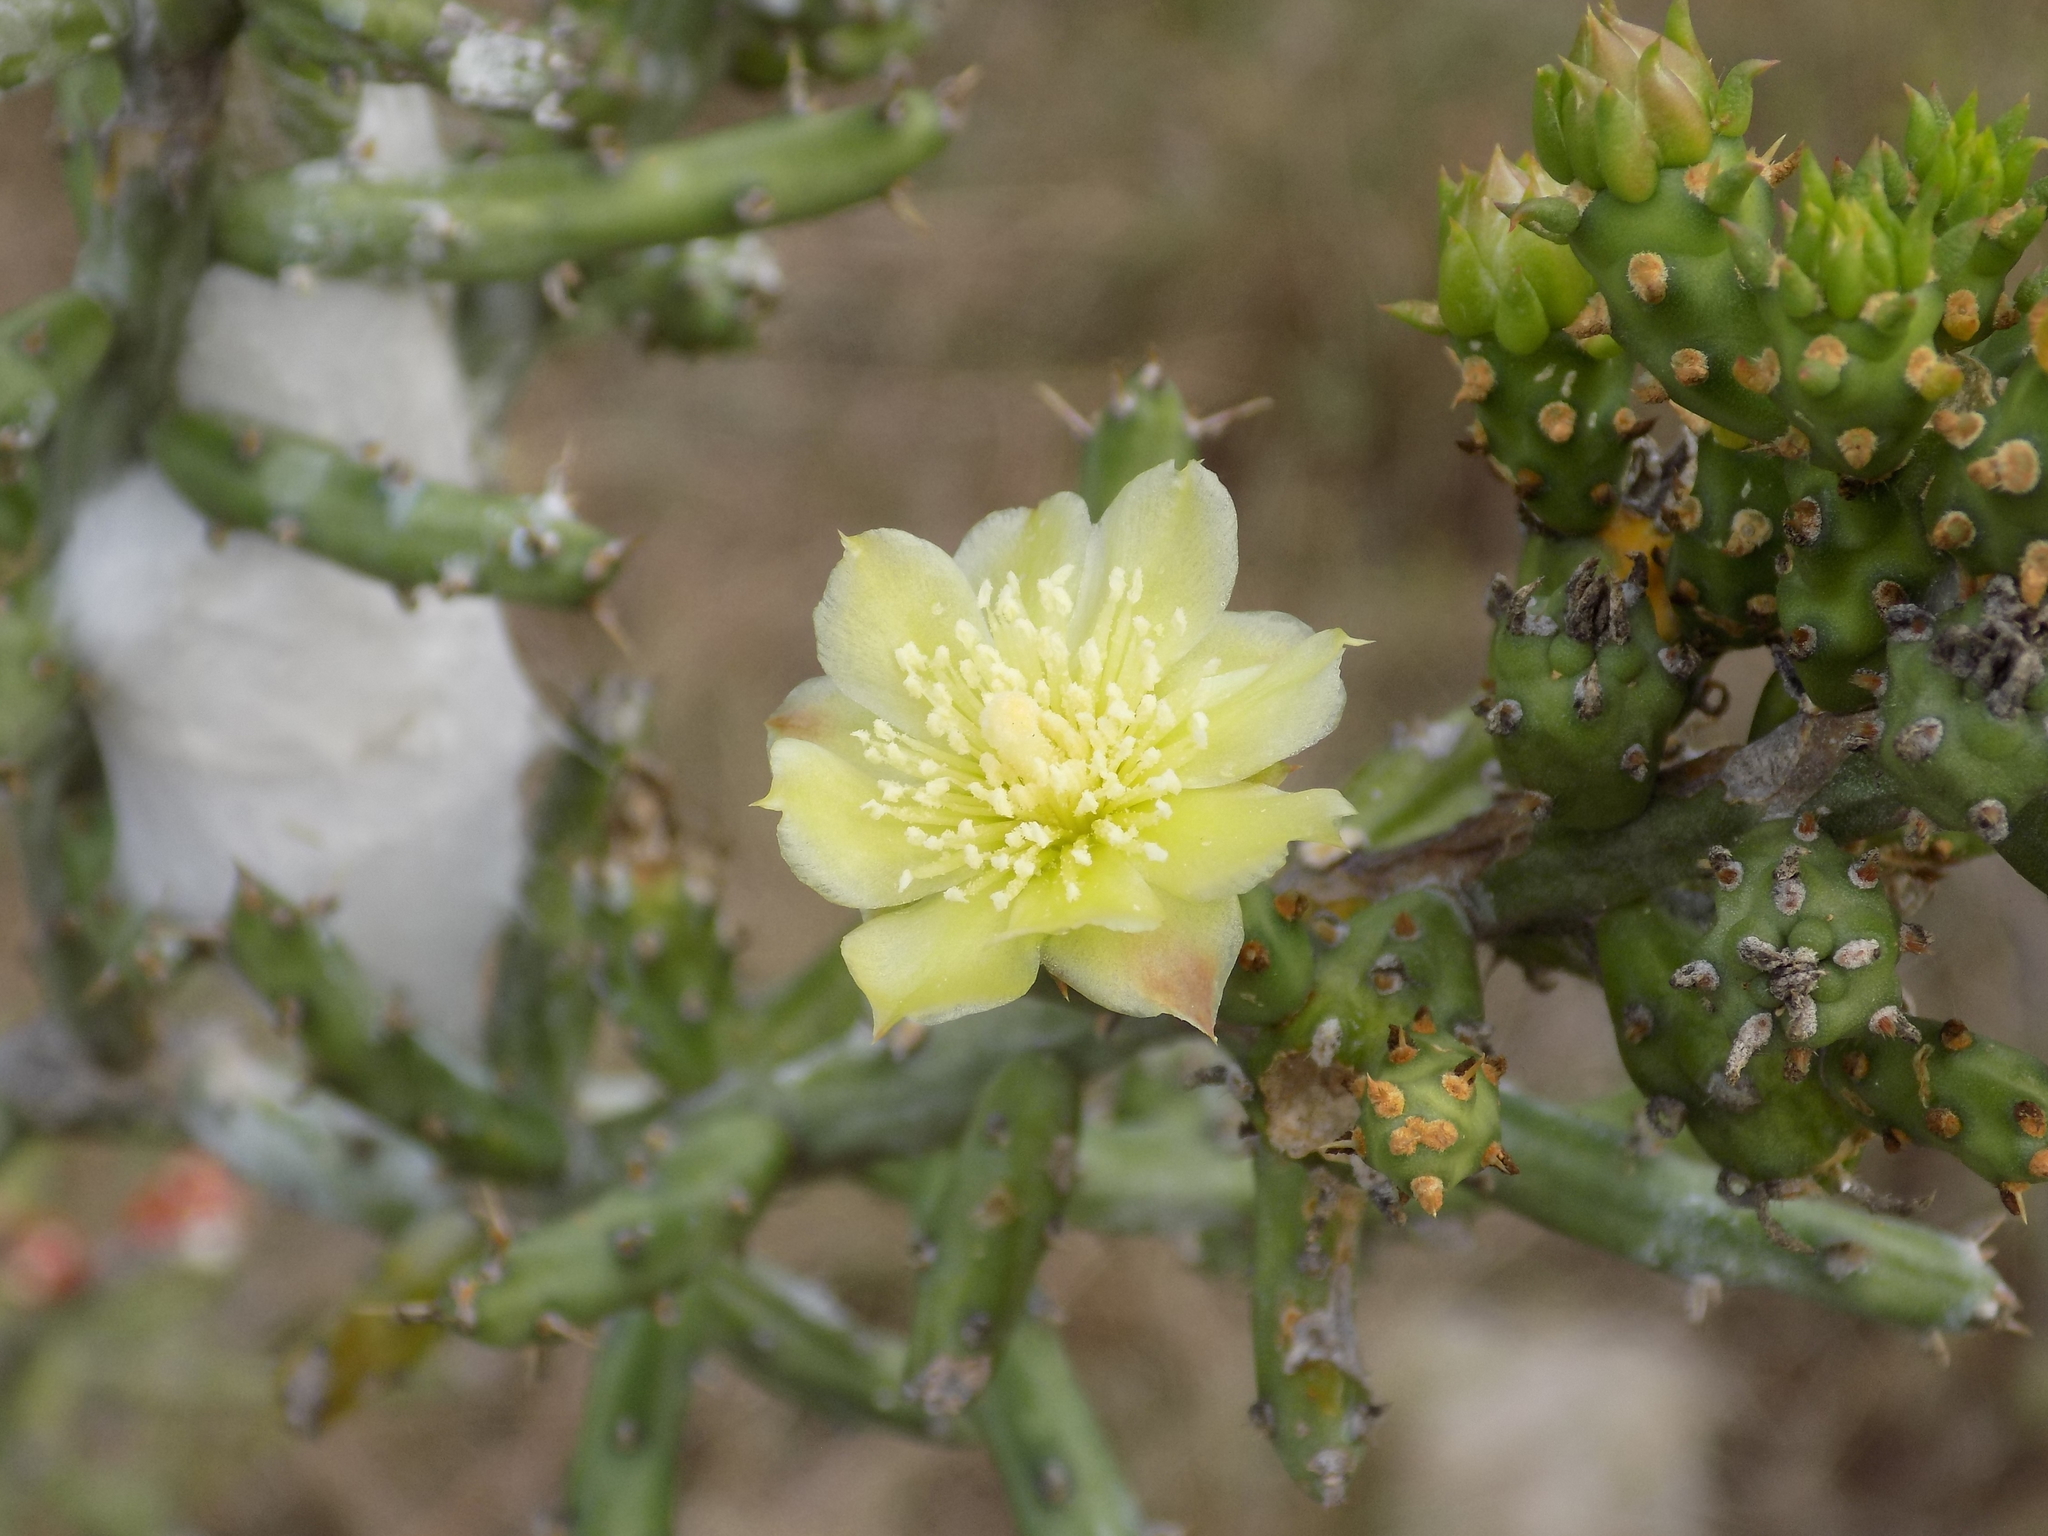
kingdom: Plantae
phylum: Tracheophyta
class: Magnoliopsida
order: Caryophyllales
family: Cactaceae
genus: Cylindropuntia
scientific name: Cylindropuntia leptocaulis
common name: Christmas cactus
